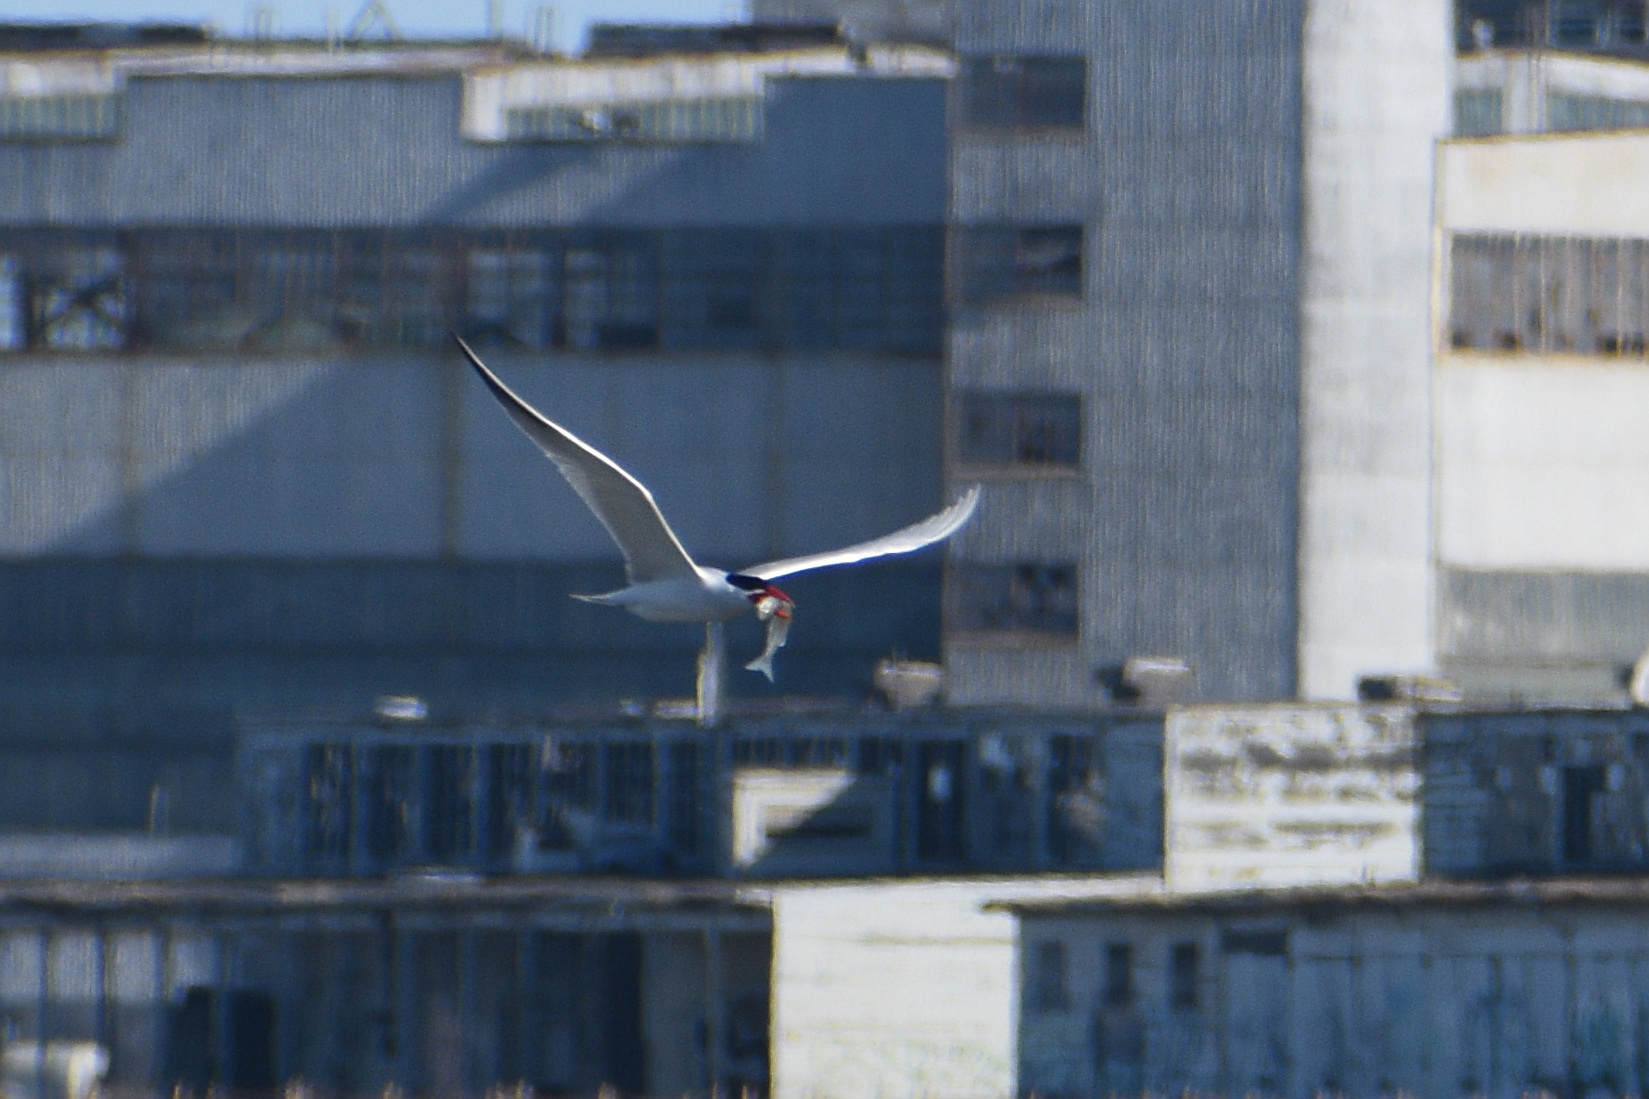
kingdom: Animalia
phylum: Chordata
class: Aves
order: Charadriiformes
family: Laridae
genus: Hydroprogne
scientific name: Hydroprogne caspia
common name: Caspian tern
